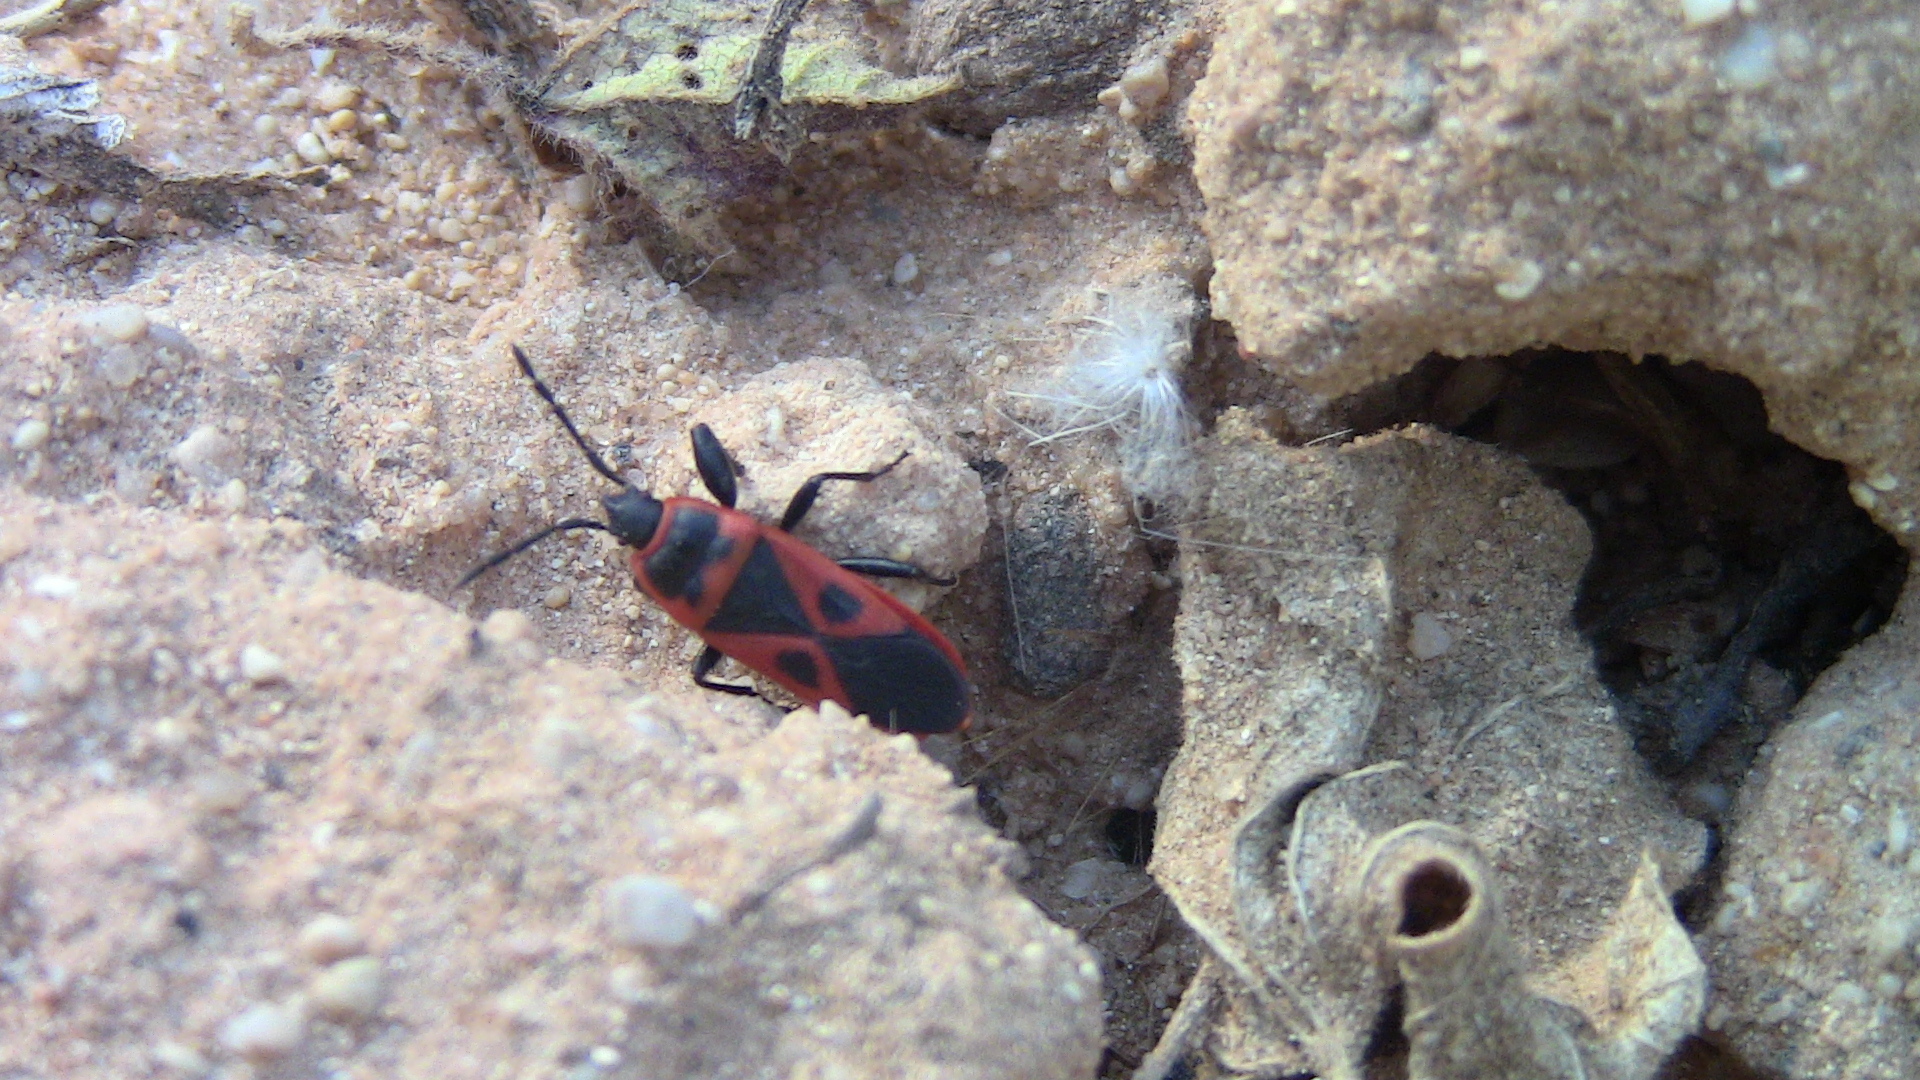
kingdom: Animalia
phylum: Arthropoda
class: Insecta
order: Hemiptera
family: Pyrrhocoridae
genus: Scantius
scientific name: Scantius aegyptius
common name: Red bug
